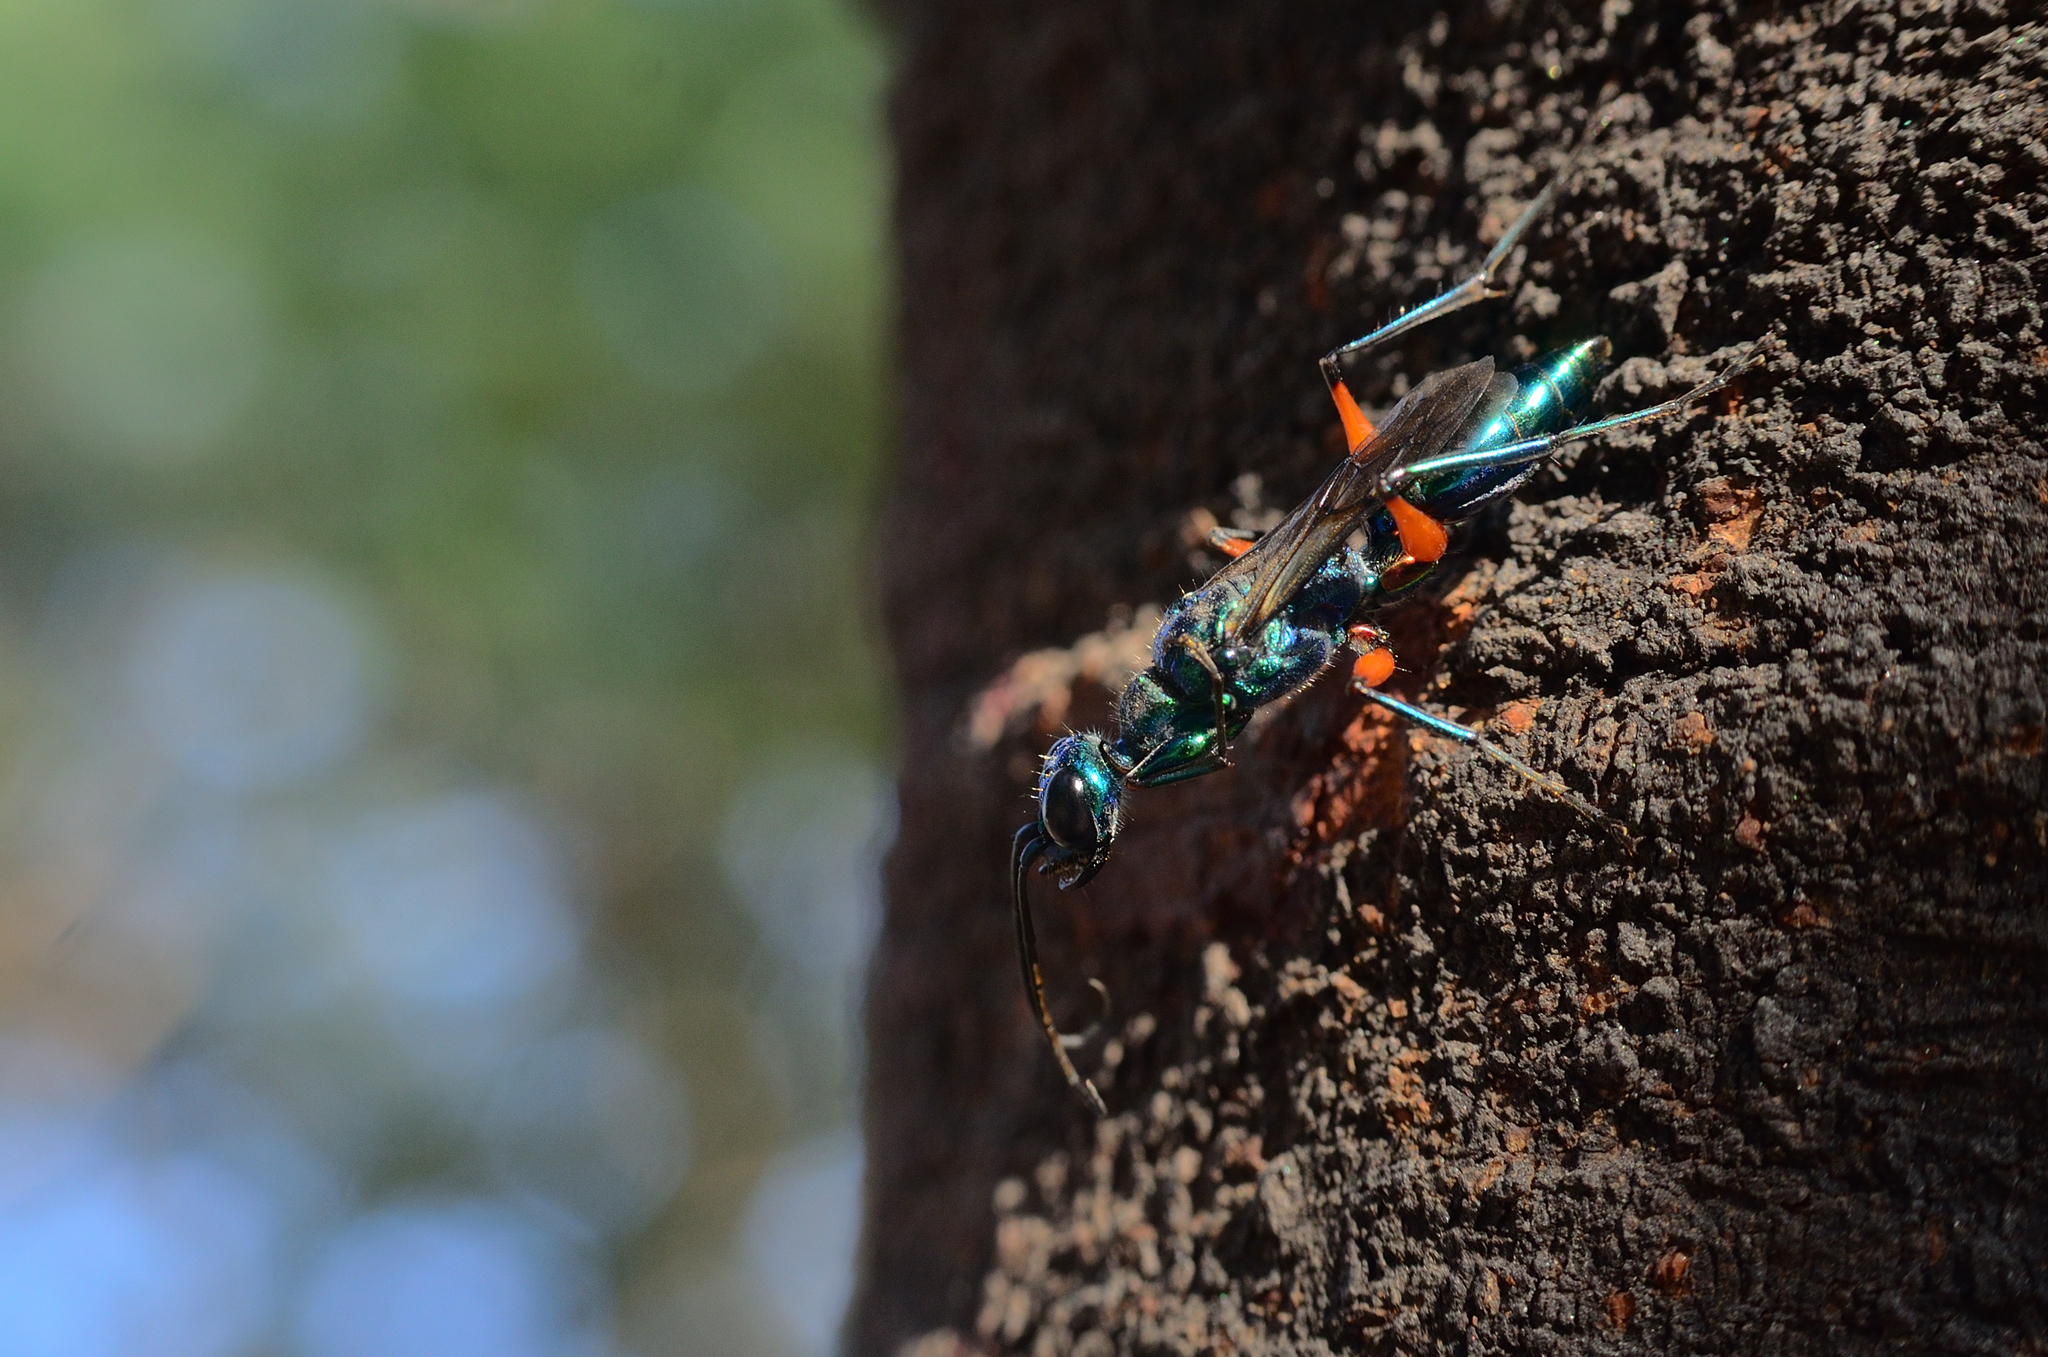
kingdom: Animalia
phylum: Arthropoda
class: Insecta
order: Hymenoptera
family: Ampulicidae
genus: Ampulex
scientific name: Ampulex compressa
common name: Emerald cockroach wasp
